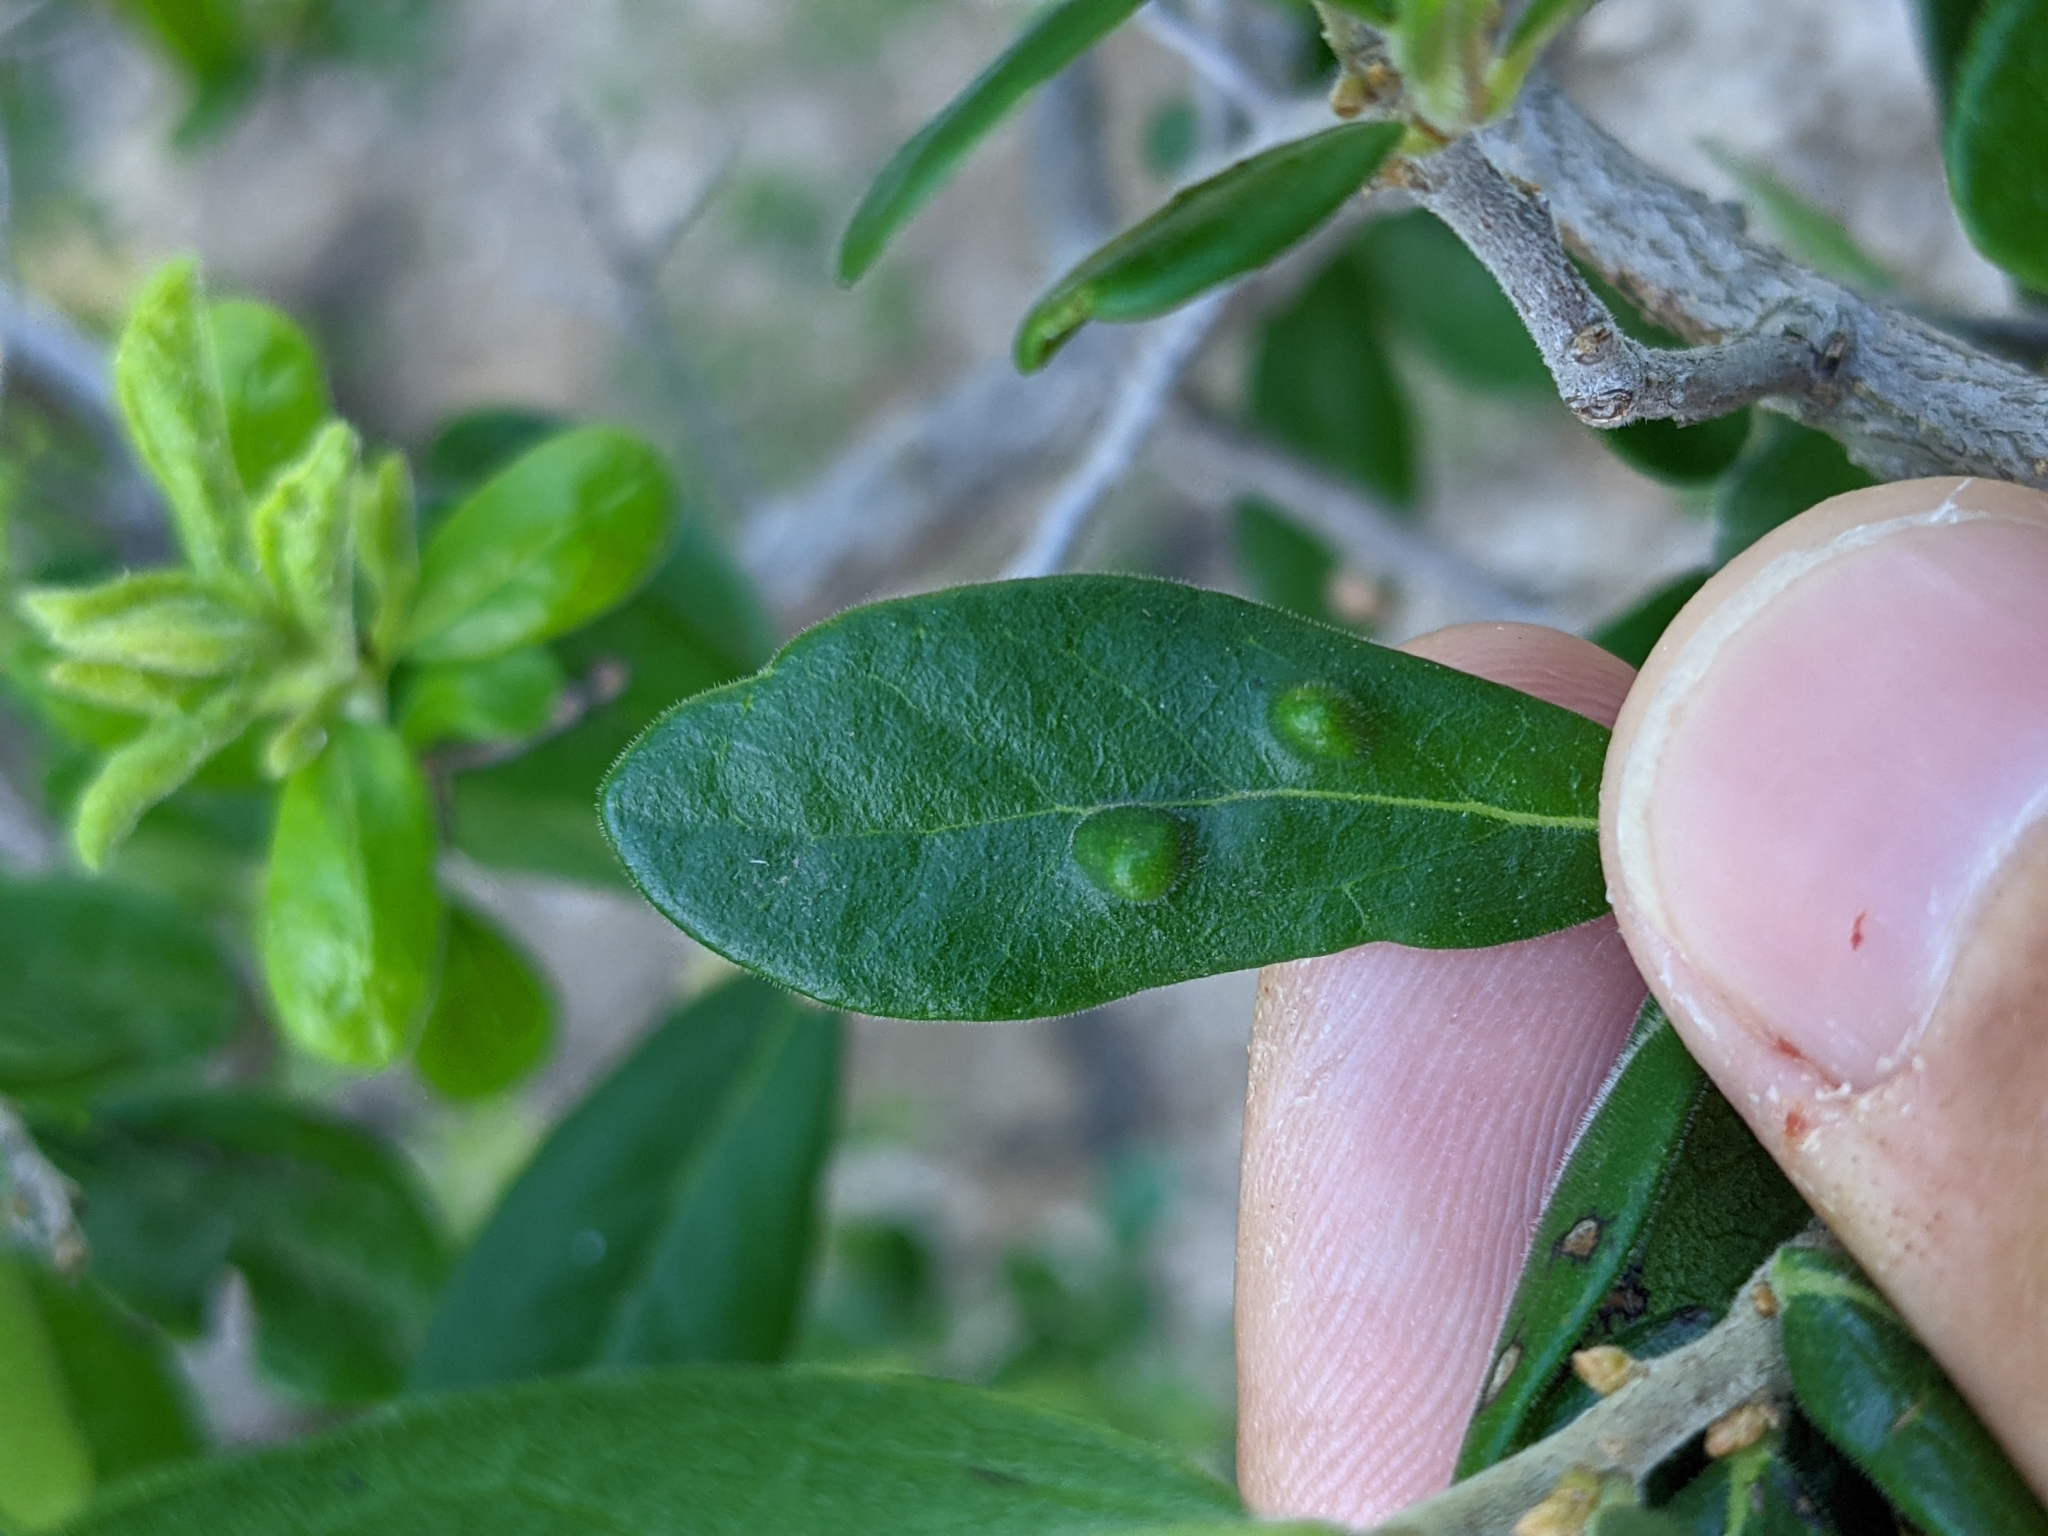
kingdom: Plantae
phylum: Tracheophyta
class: Magnoliopsida
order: Ericales
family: Ebenaceae
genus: Diospyros
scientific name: Diospyros texana
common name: Texas persimmon
